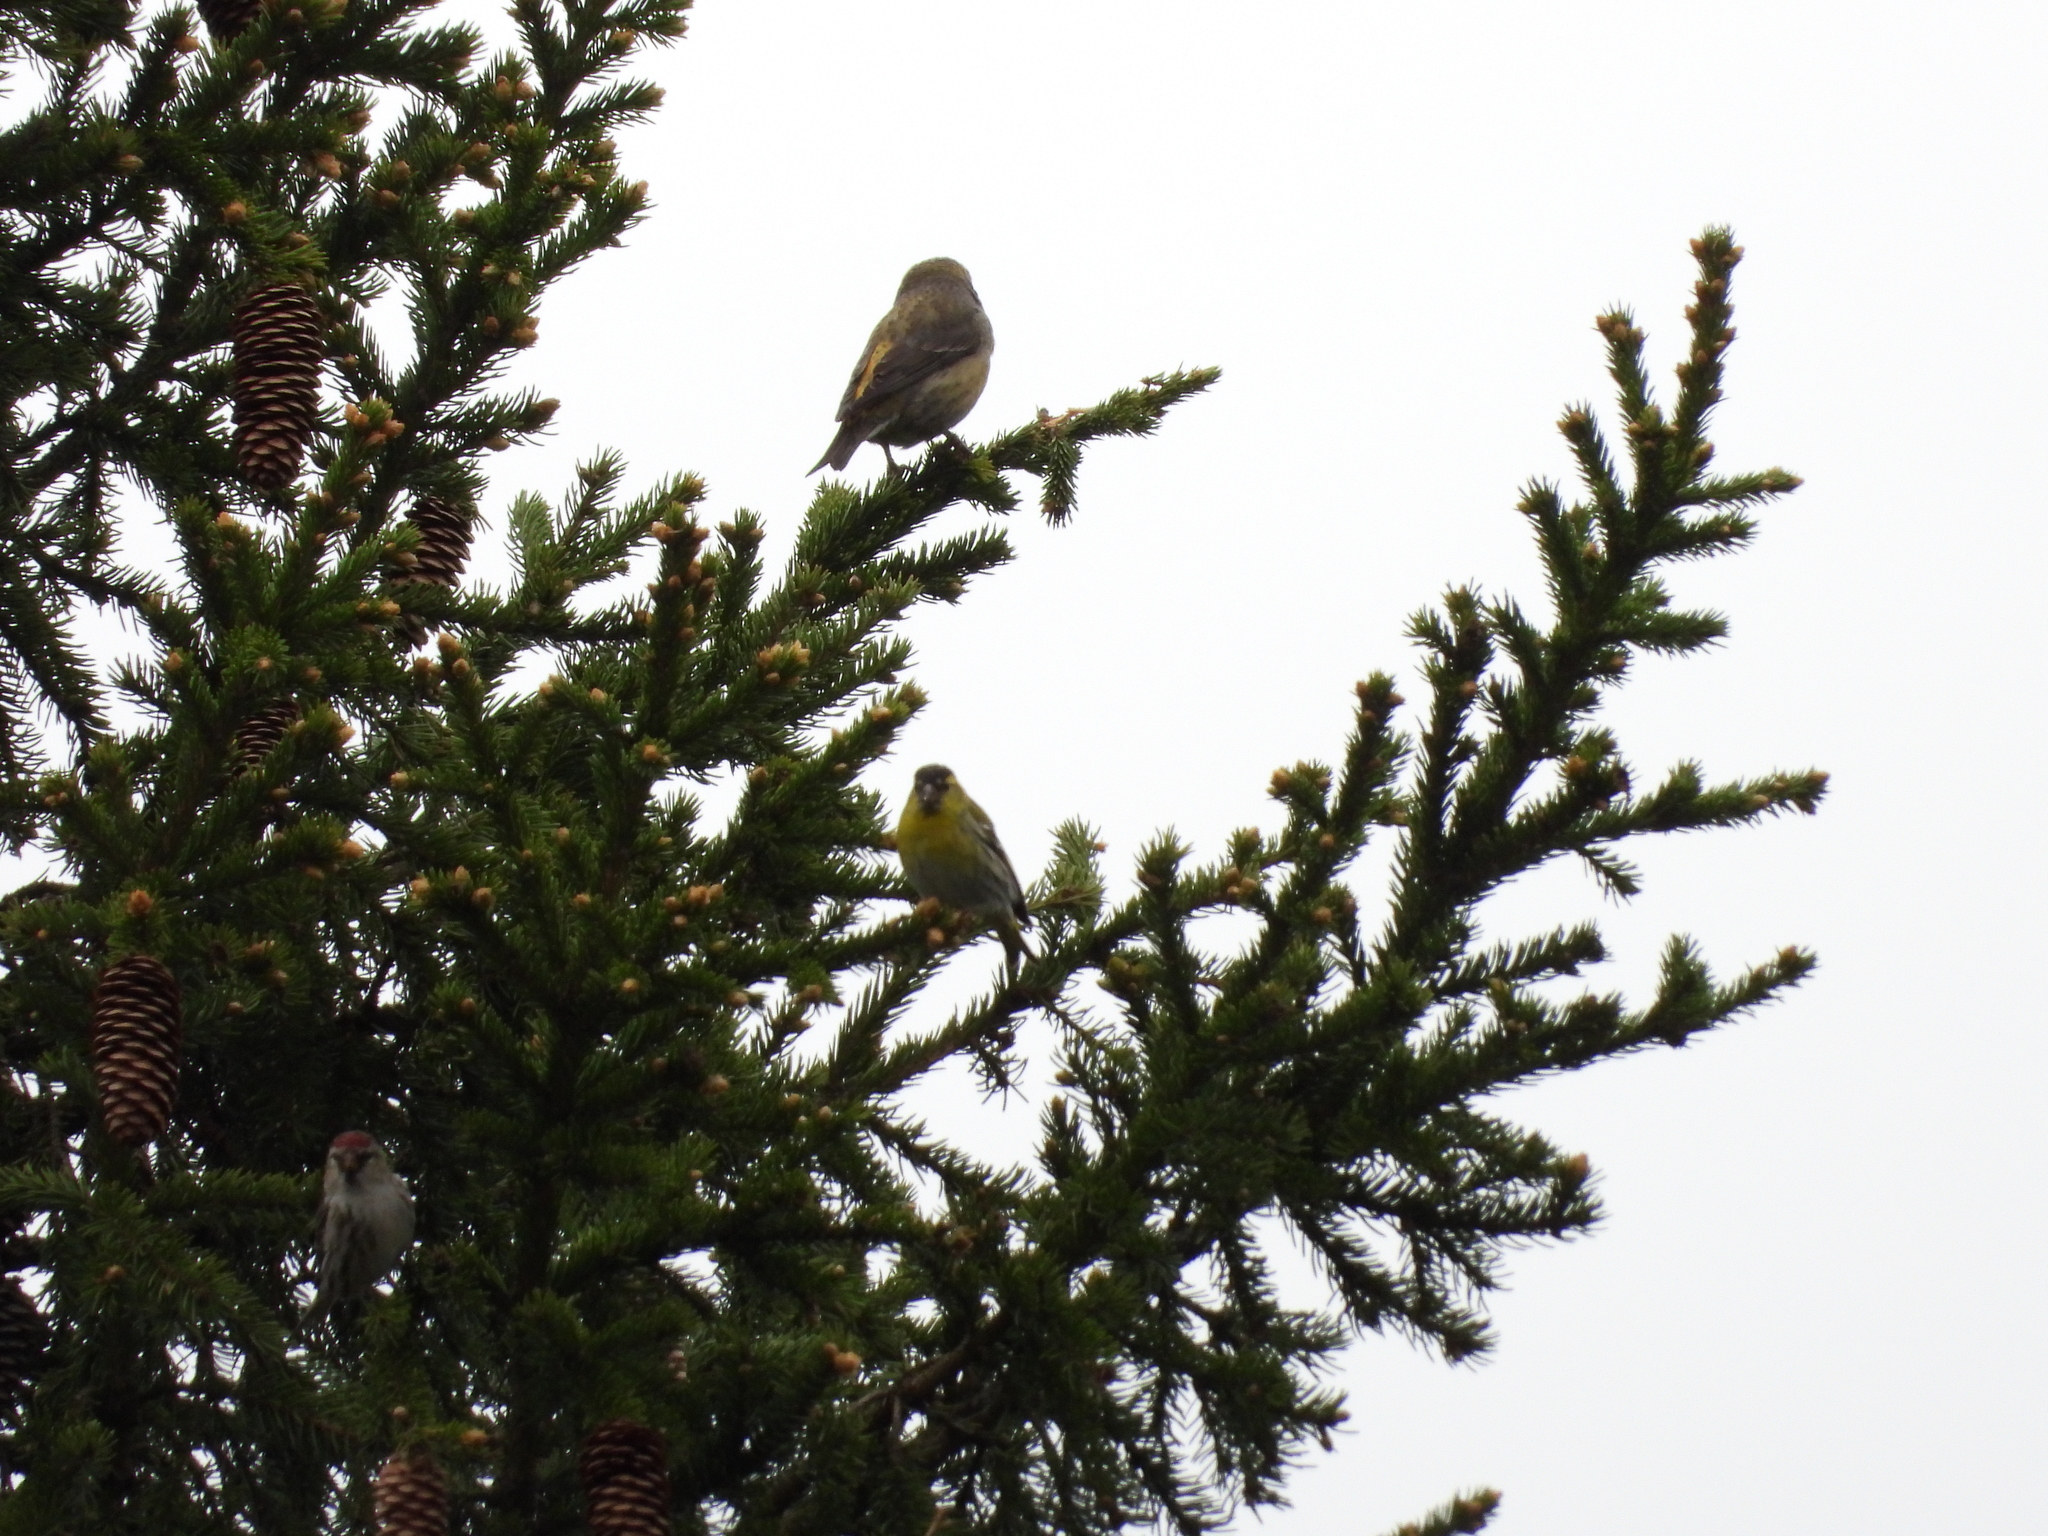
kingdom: Animalia
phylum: Chordata
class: Aves
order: Passeriformes
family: Fringillidae
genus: Spinus
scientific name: Spinus spinus
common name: Eurasian siskin
